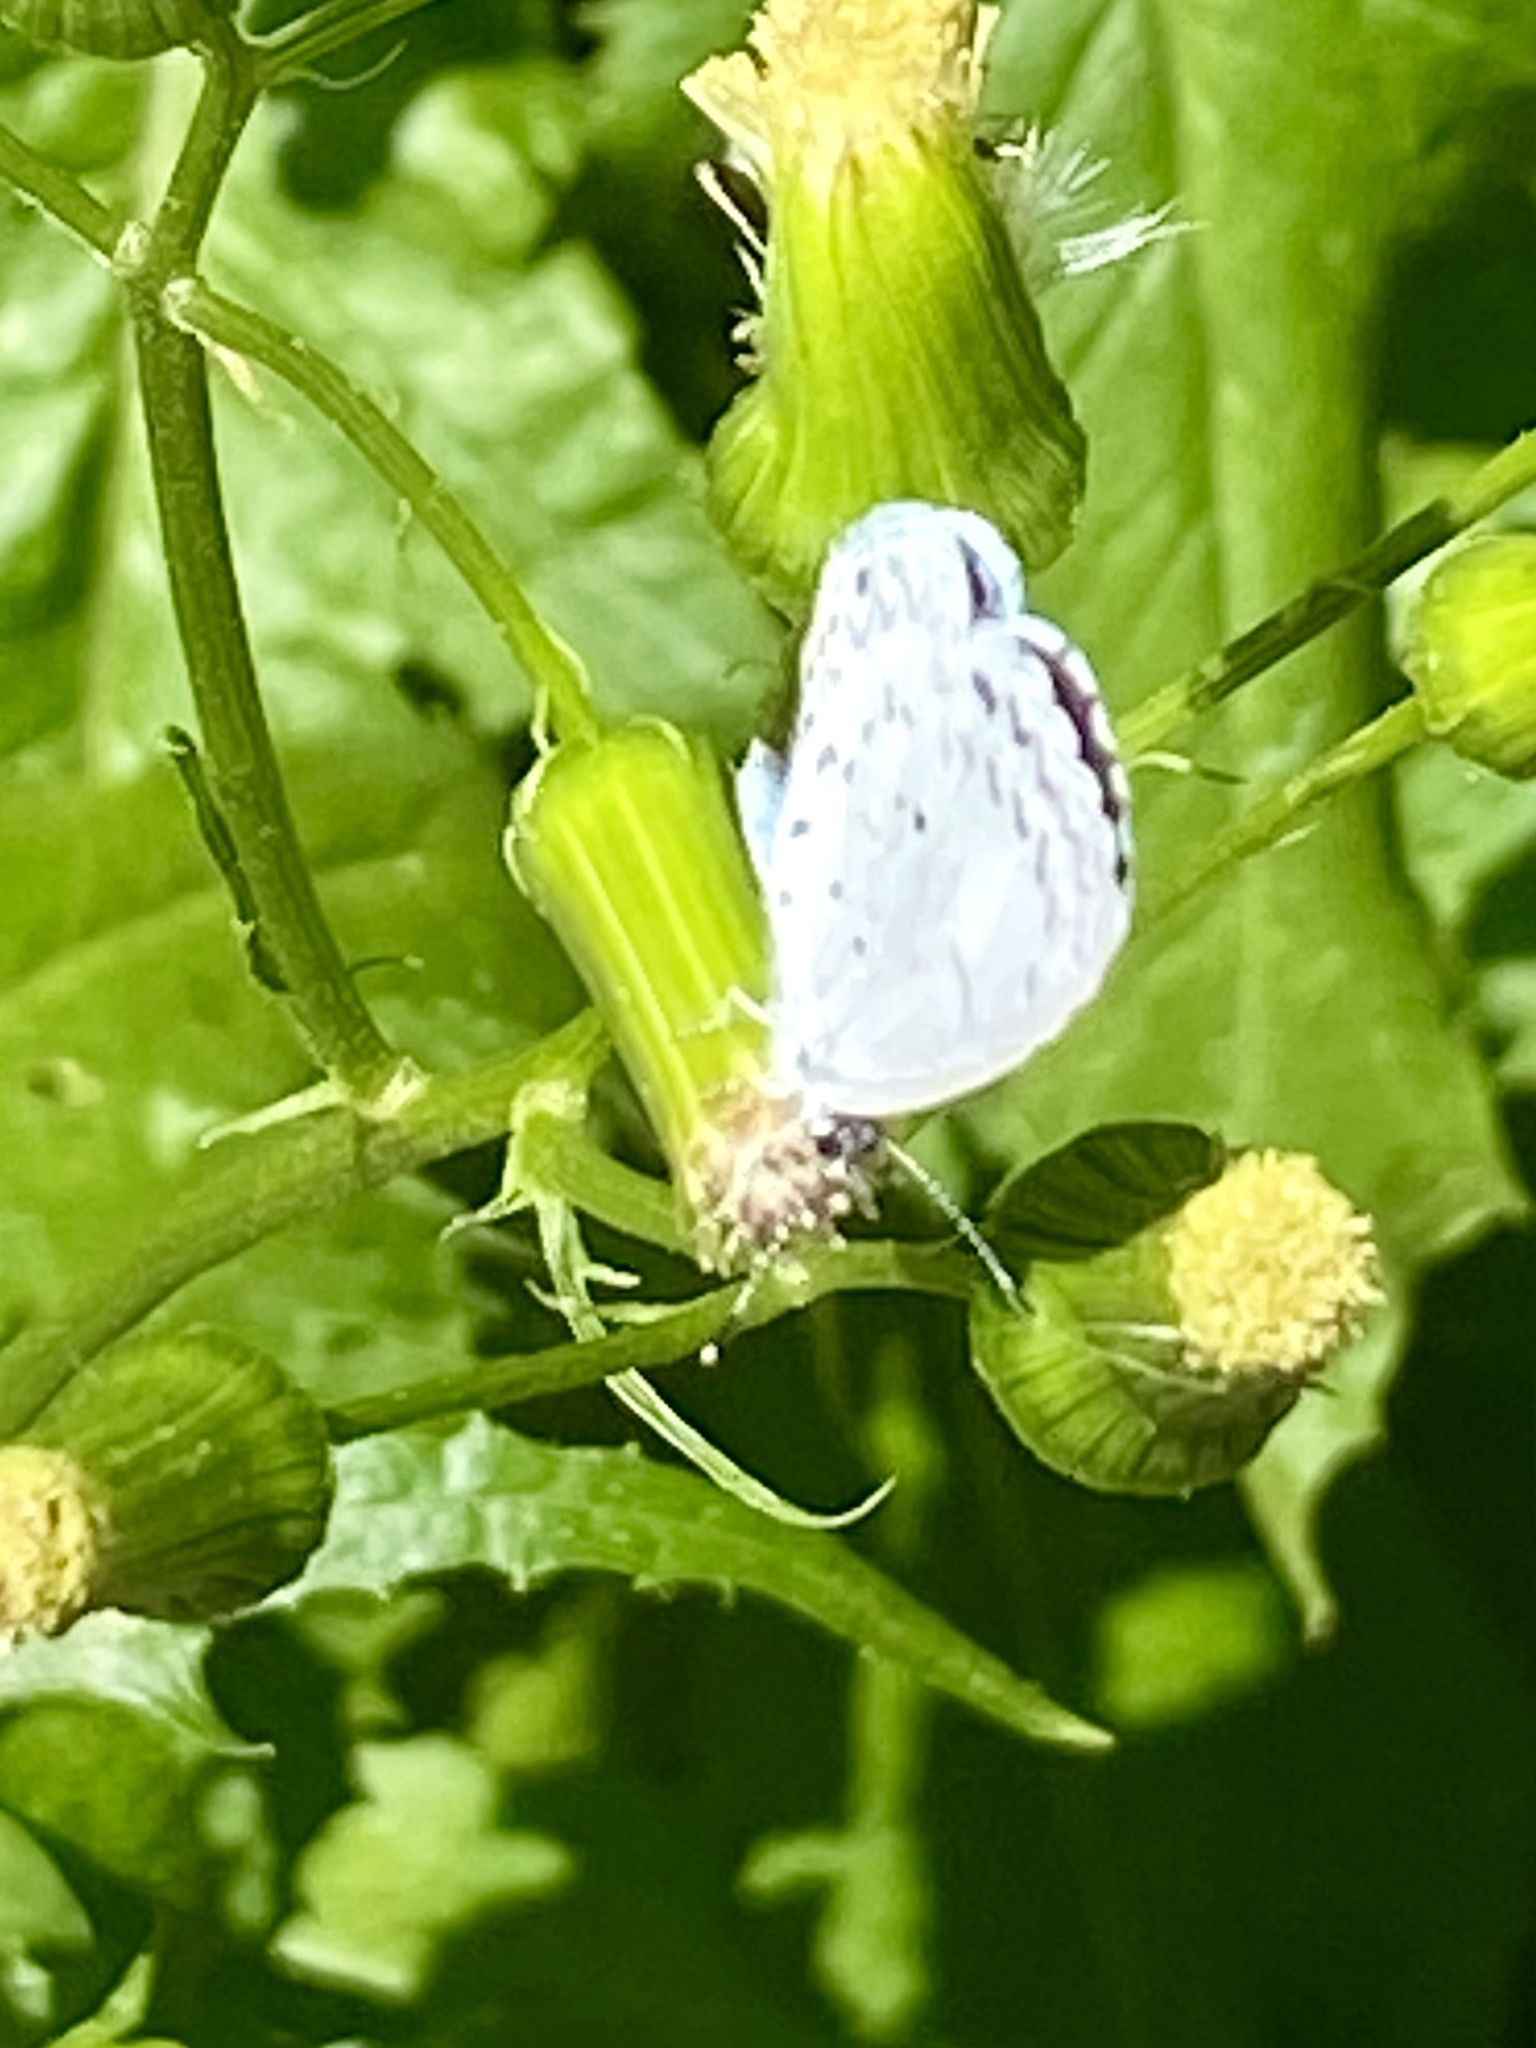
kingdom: Animalia
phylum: Arthropoda
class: Insecta
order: Lepidoptera
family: Lycaenidae
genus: Cyaniris
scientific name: Cyaniris neglecta
